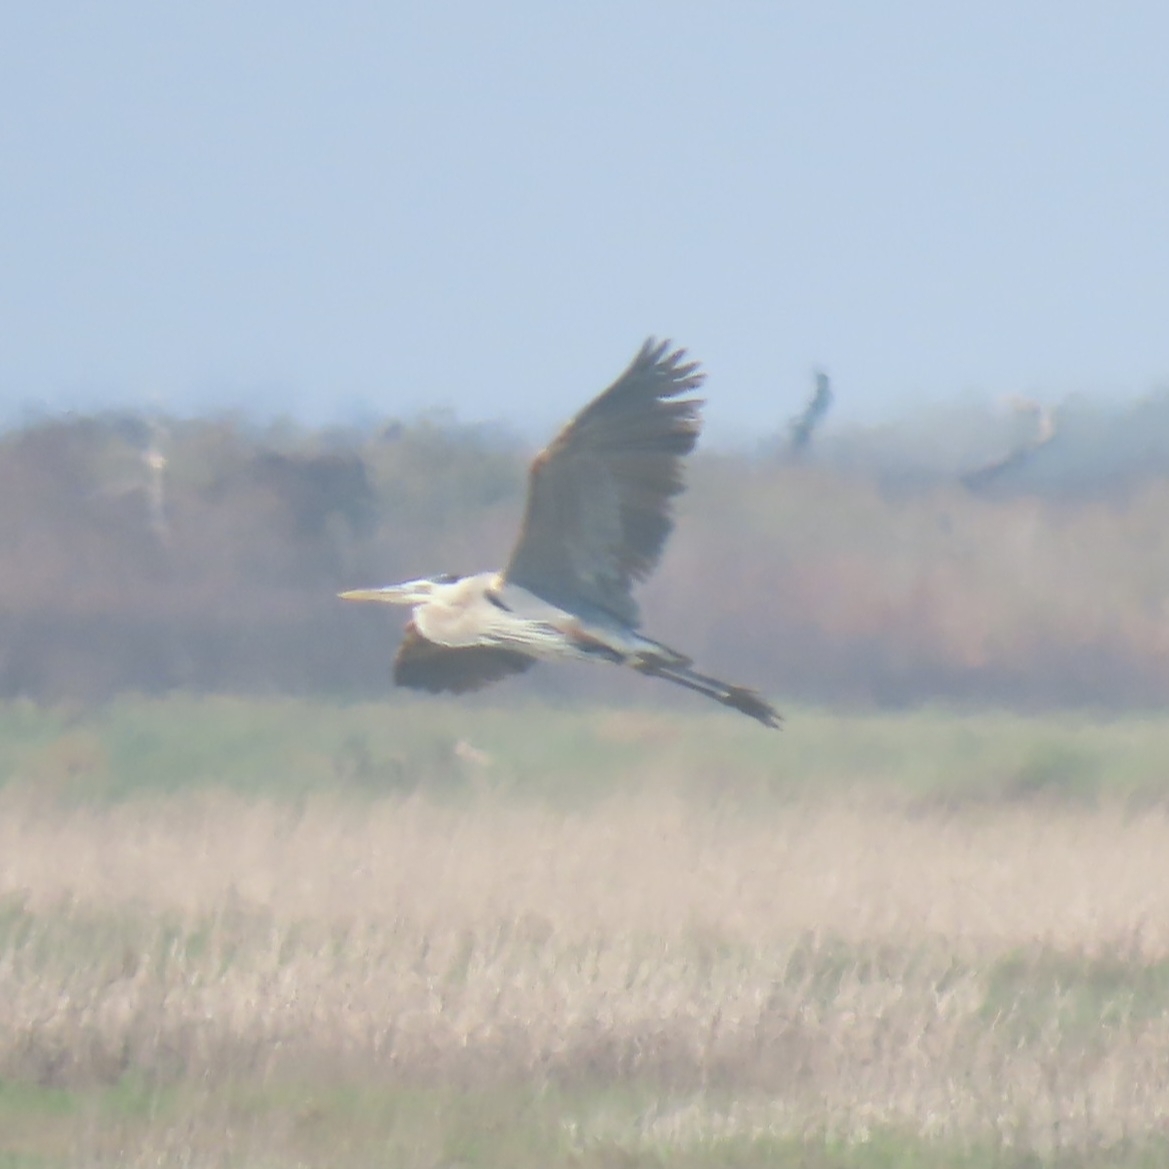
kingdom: Animalia
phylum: Chordata
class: Aves
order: Pelecaniformes
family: Ardeidae
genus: Ardea
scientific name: Ardea herodias
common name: Great blue heron
